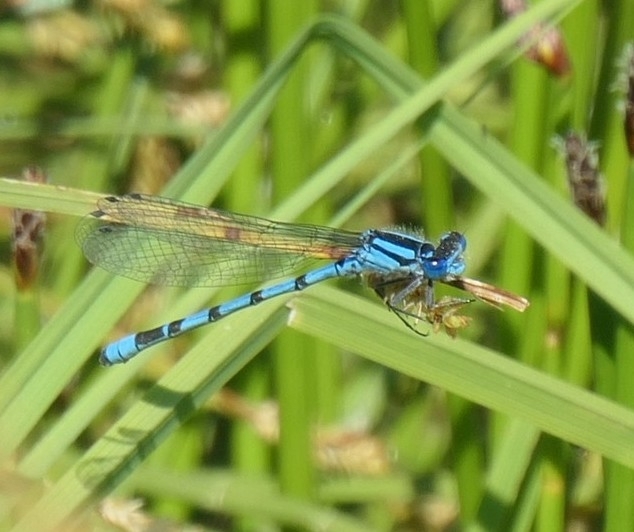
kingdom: Animalia
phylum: Arthropoda
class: Insecta
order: Odonata
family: Coenagrionidae
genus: Enallagma
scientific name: Enallagma cyathigerum
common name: Common blue damselfly
